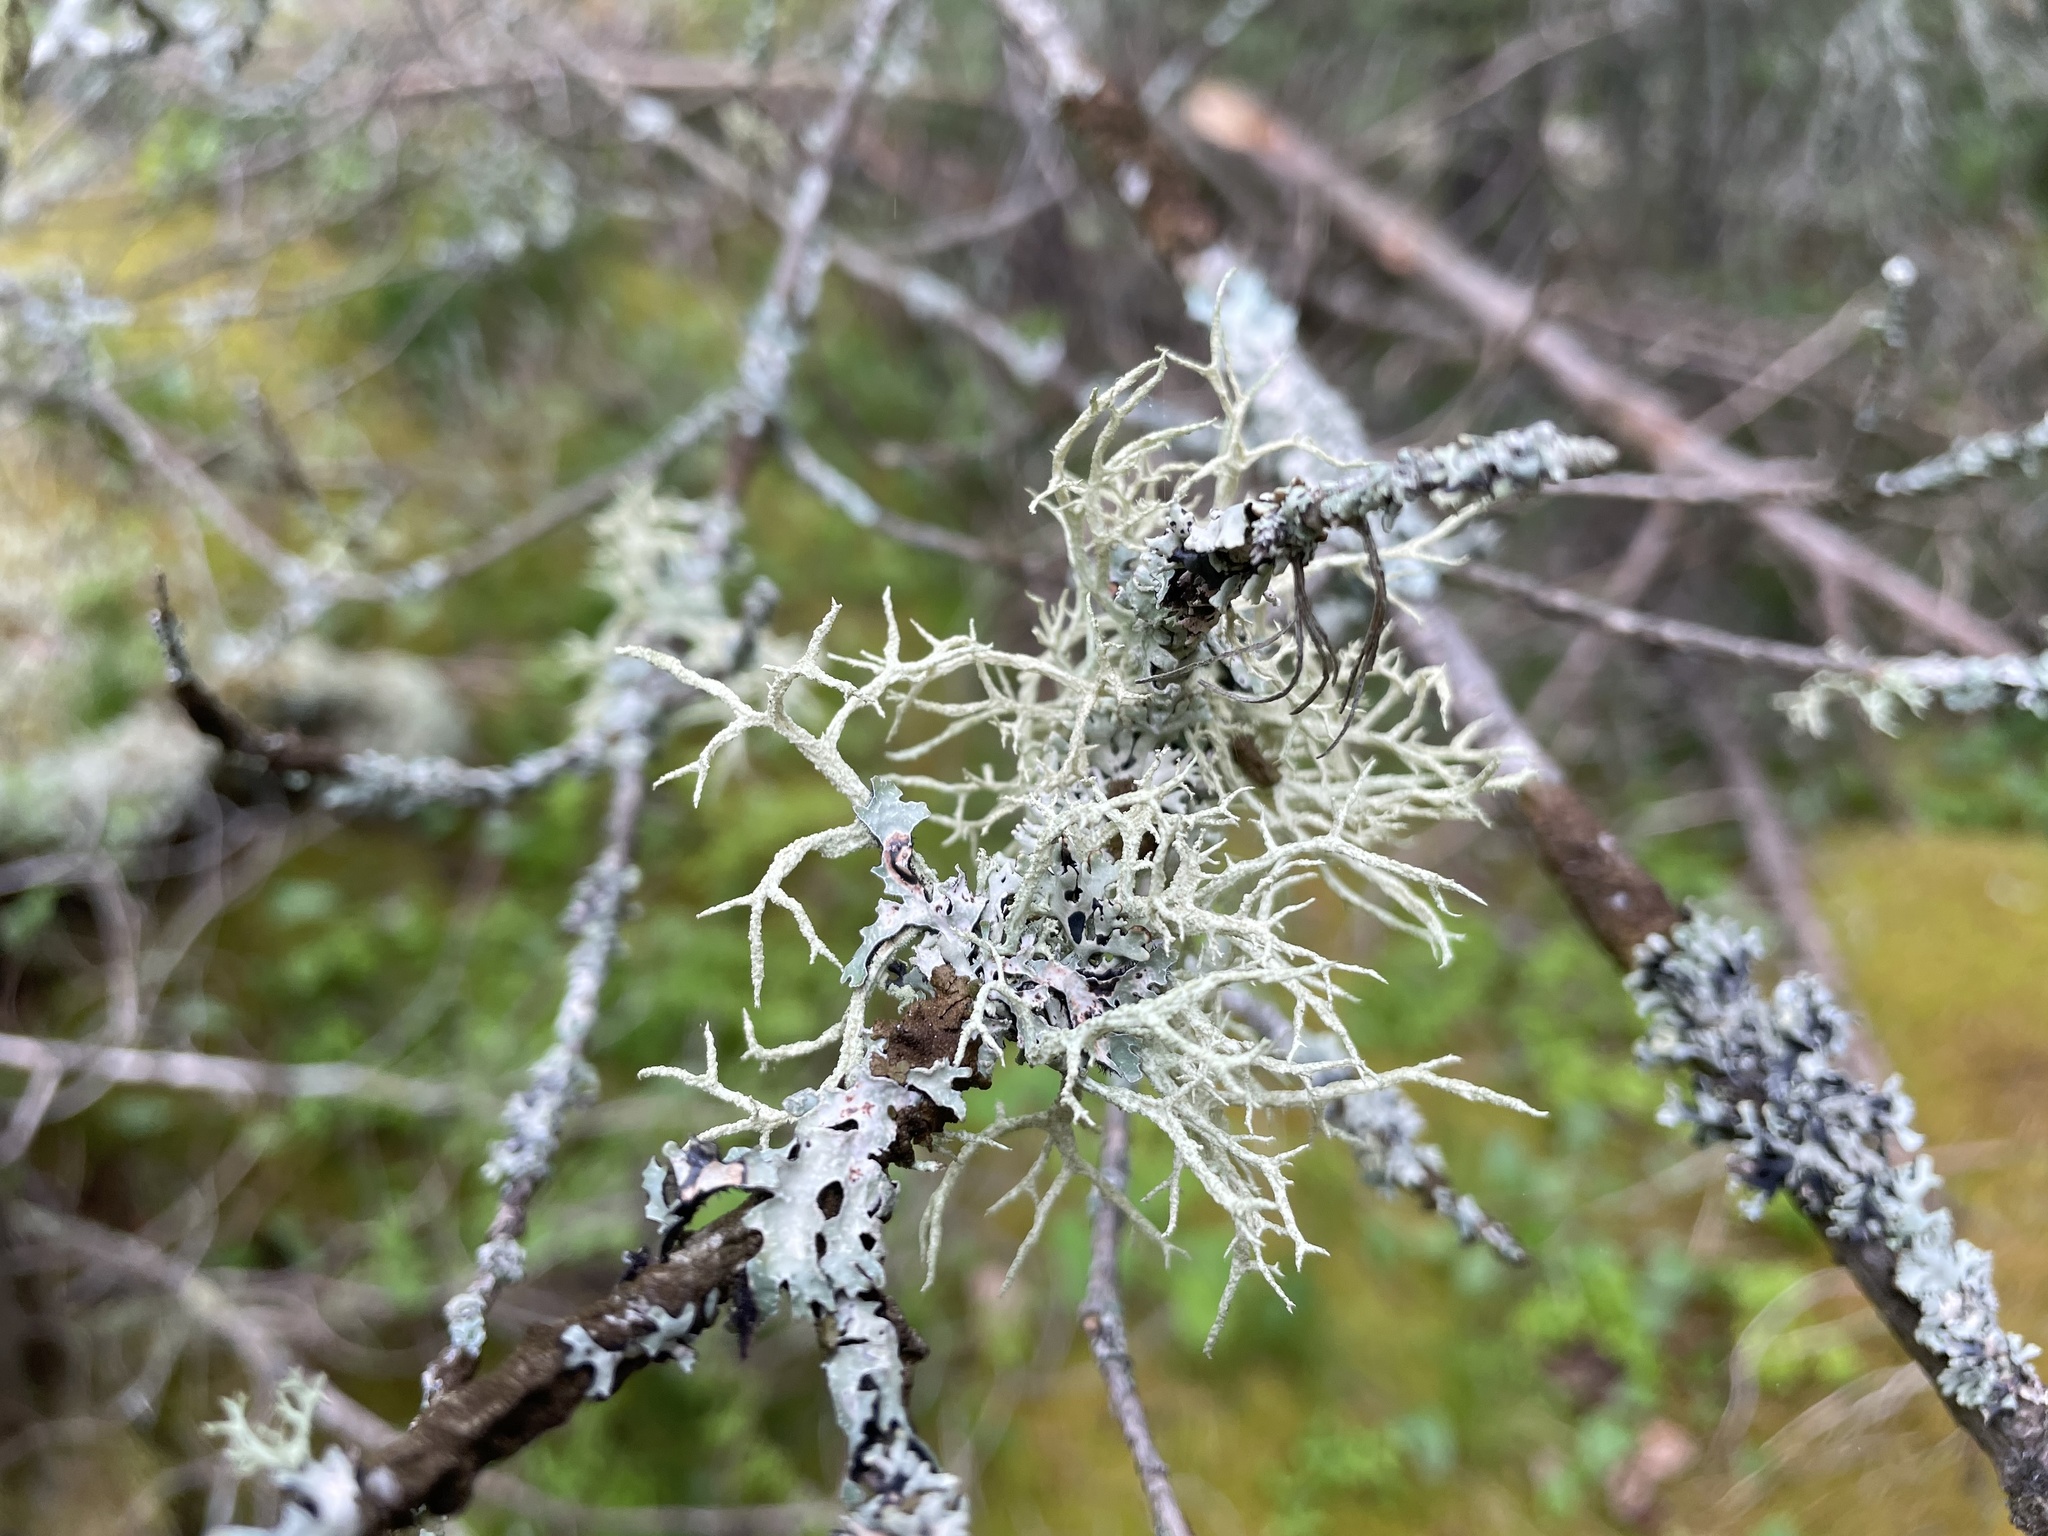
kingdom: Fungi
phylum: Ascomycota
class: Lecanoromycetes
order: Lecanorales
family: Parmeliaceae
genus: Evernia
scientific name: Evernia mesomorpha
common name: Boreal oak moss lichen
